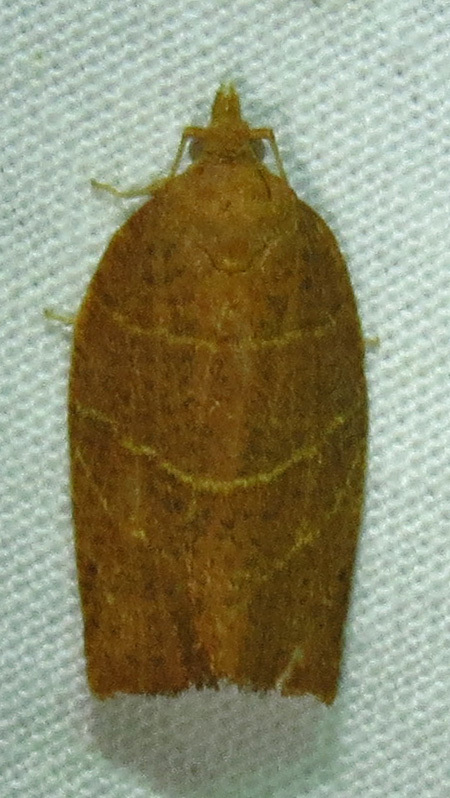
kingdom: Animalia
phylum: Arthropoda
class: Insecta
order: Lepidoptera
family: Tortricidae
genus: Pandemis
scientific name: Pandemis limitata
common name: Three-lined leafroller moth
